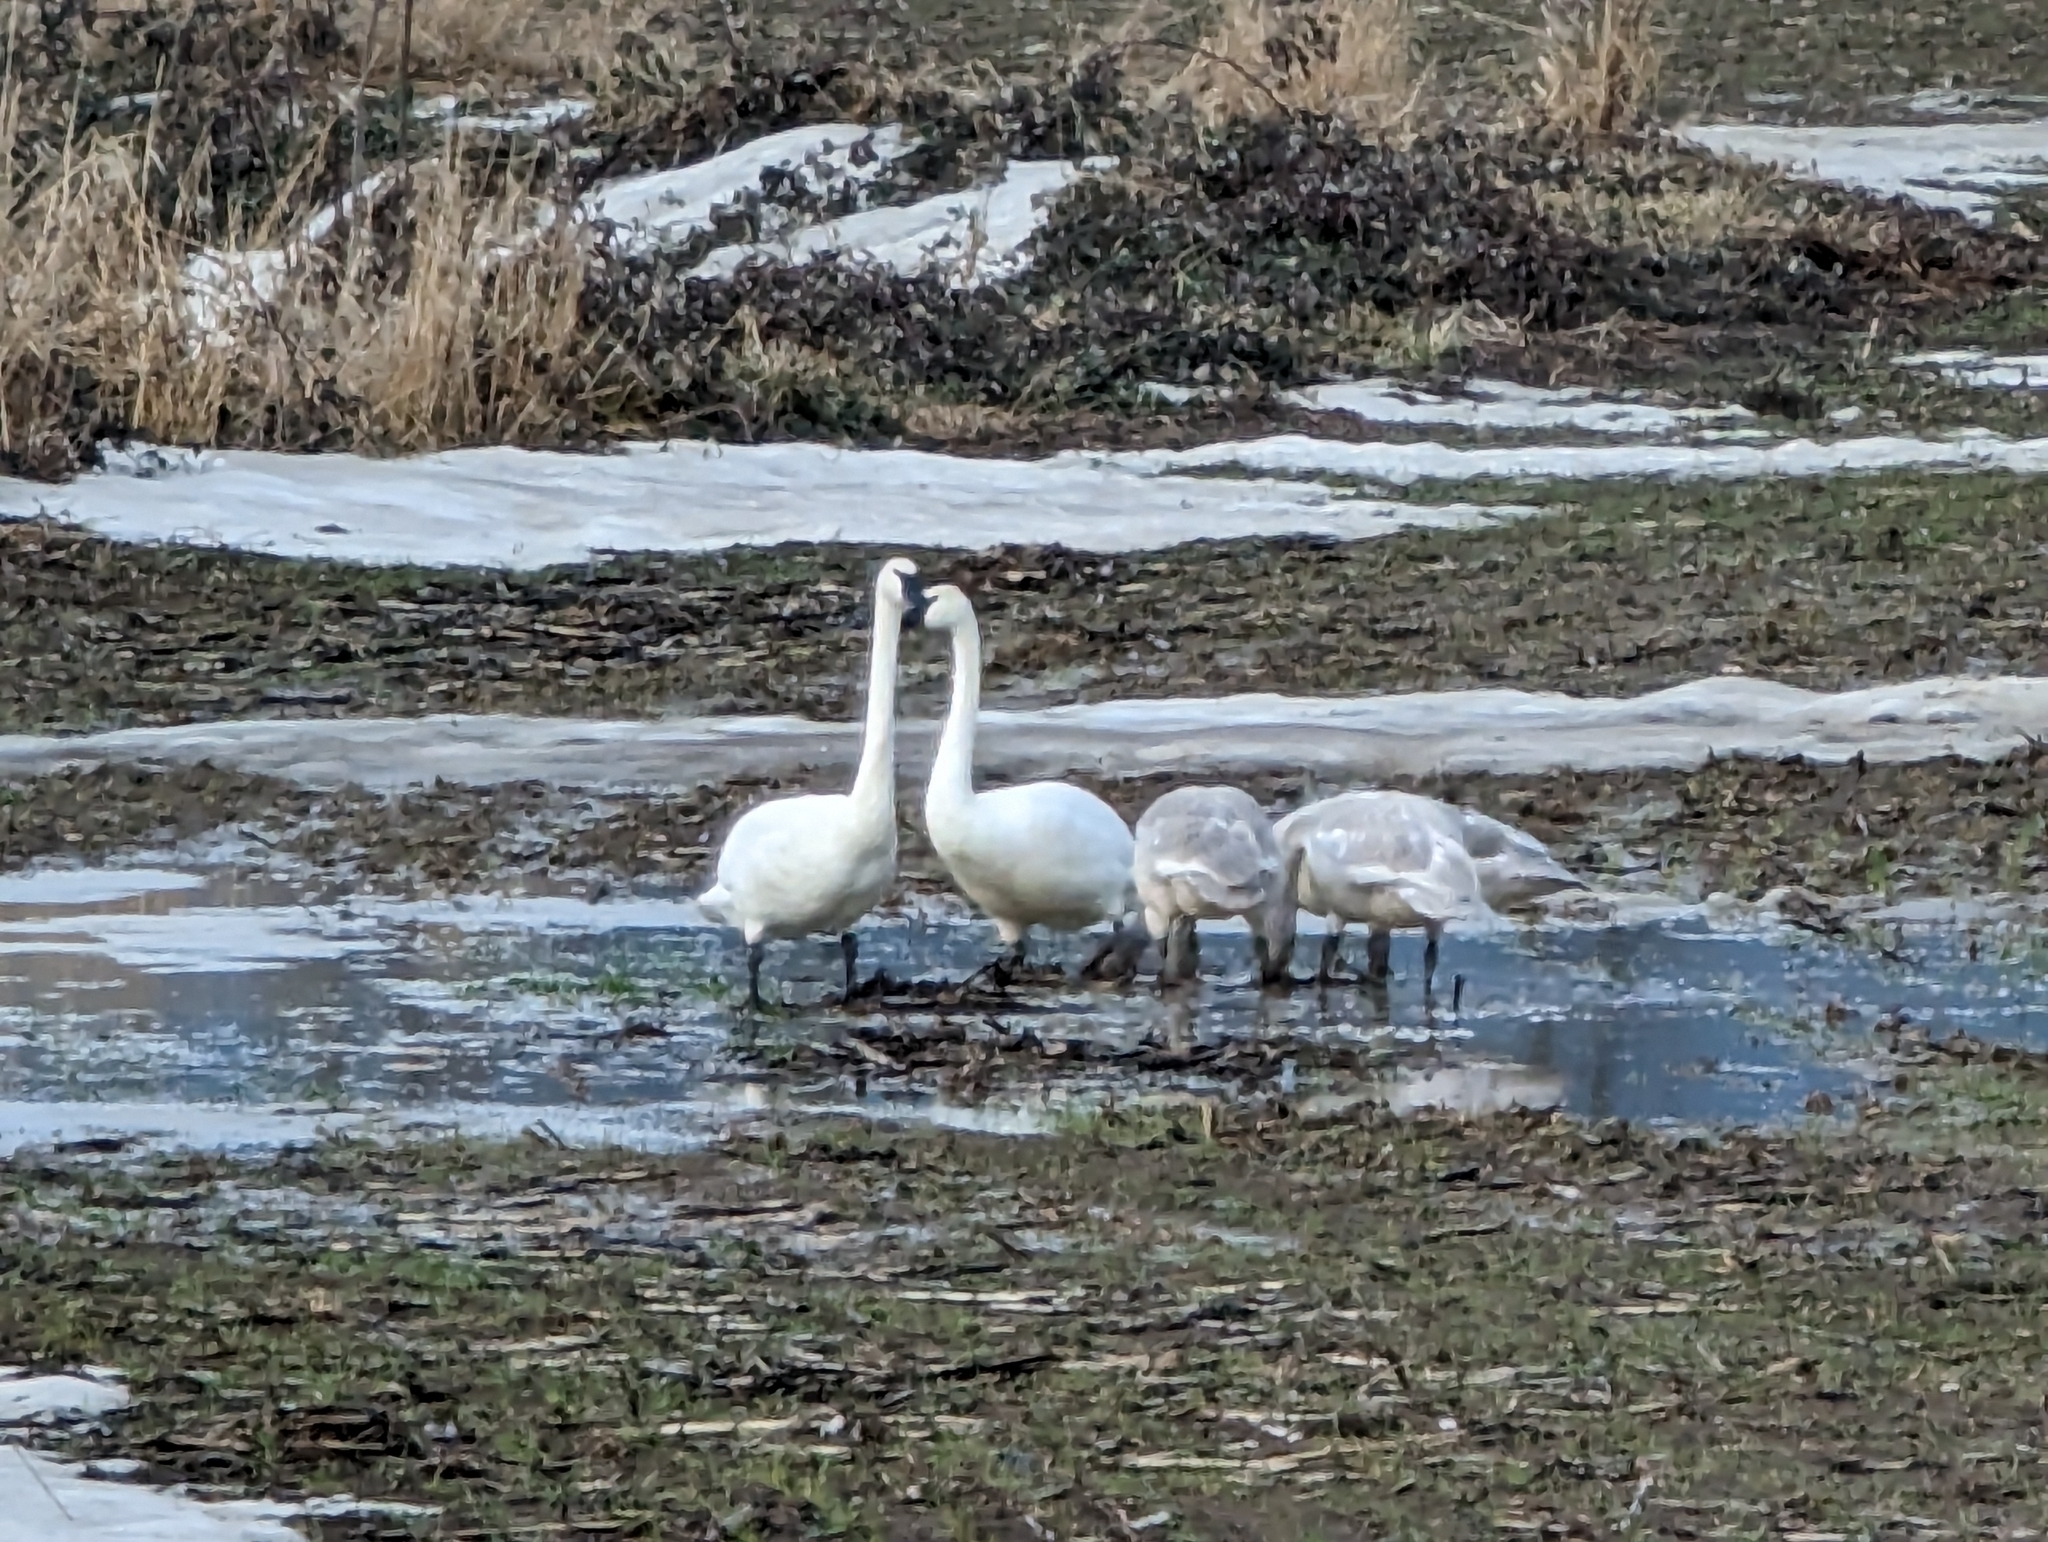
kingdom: Animalia
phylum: Chordata
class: Aves
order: Anseriformes
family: Anatidae
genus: Cygnus
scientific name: Cygnus buccinator
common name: Trumpeter swan
